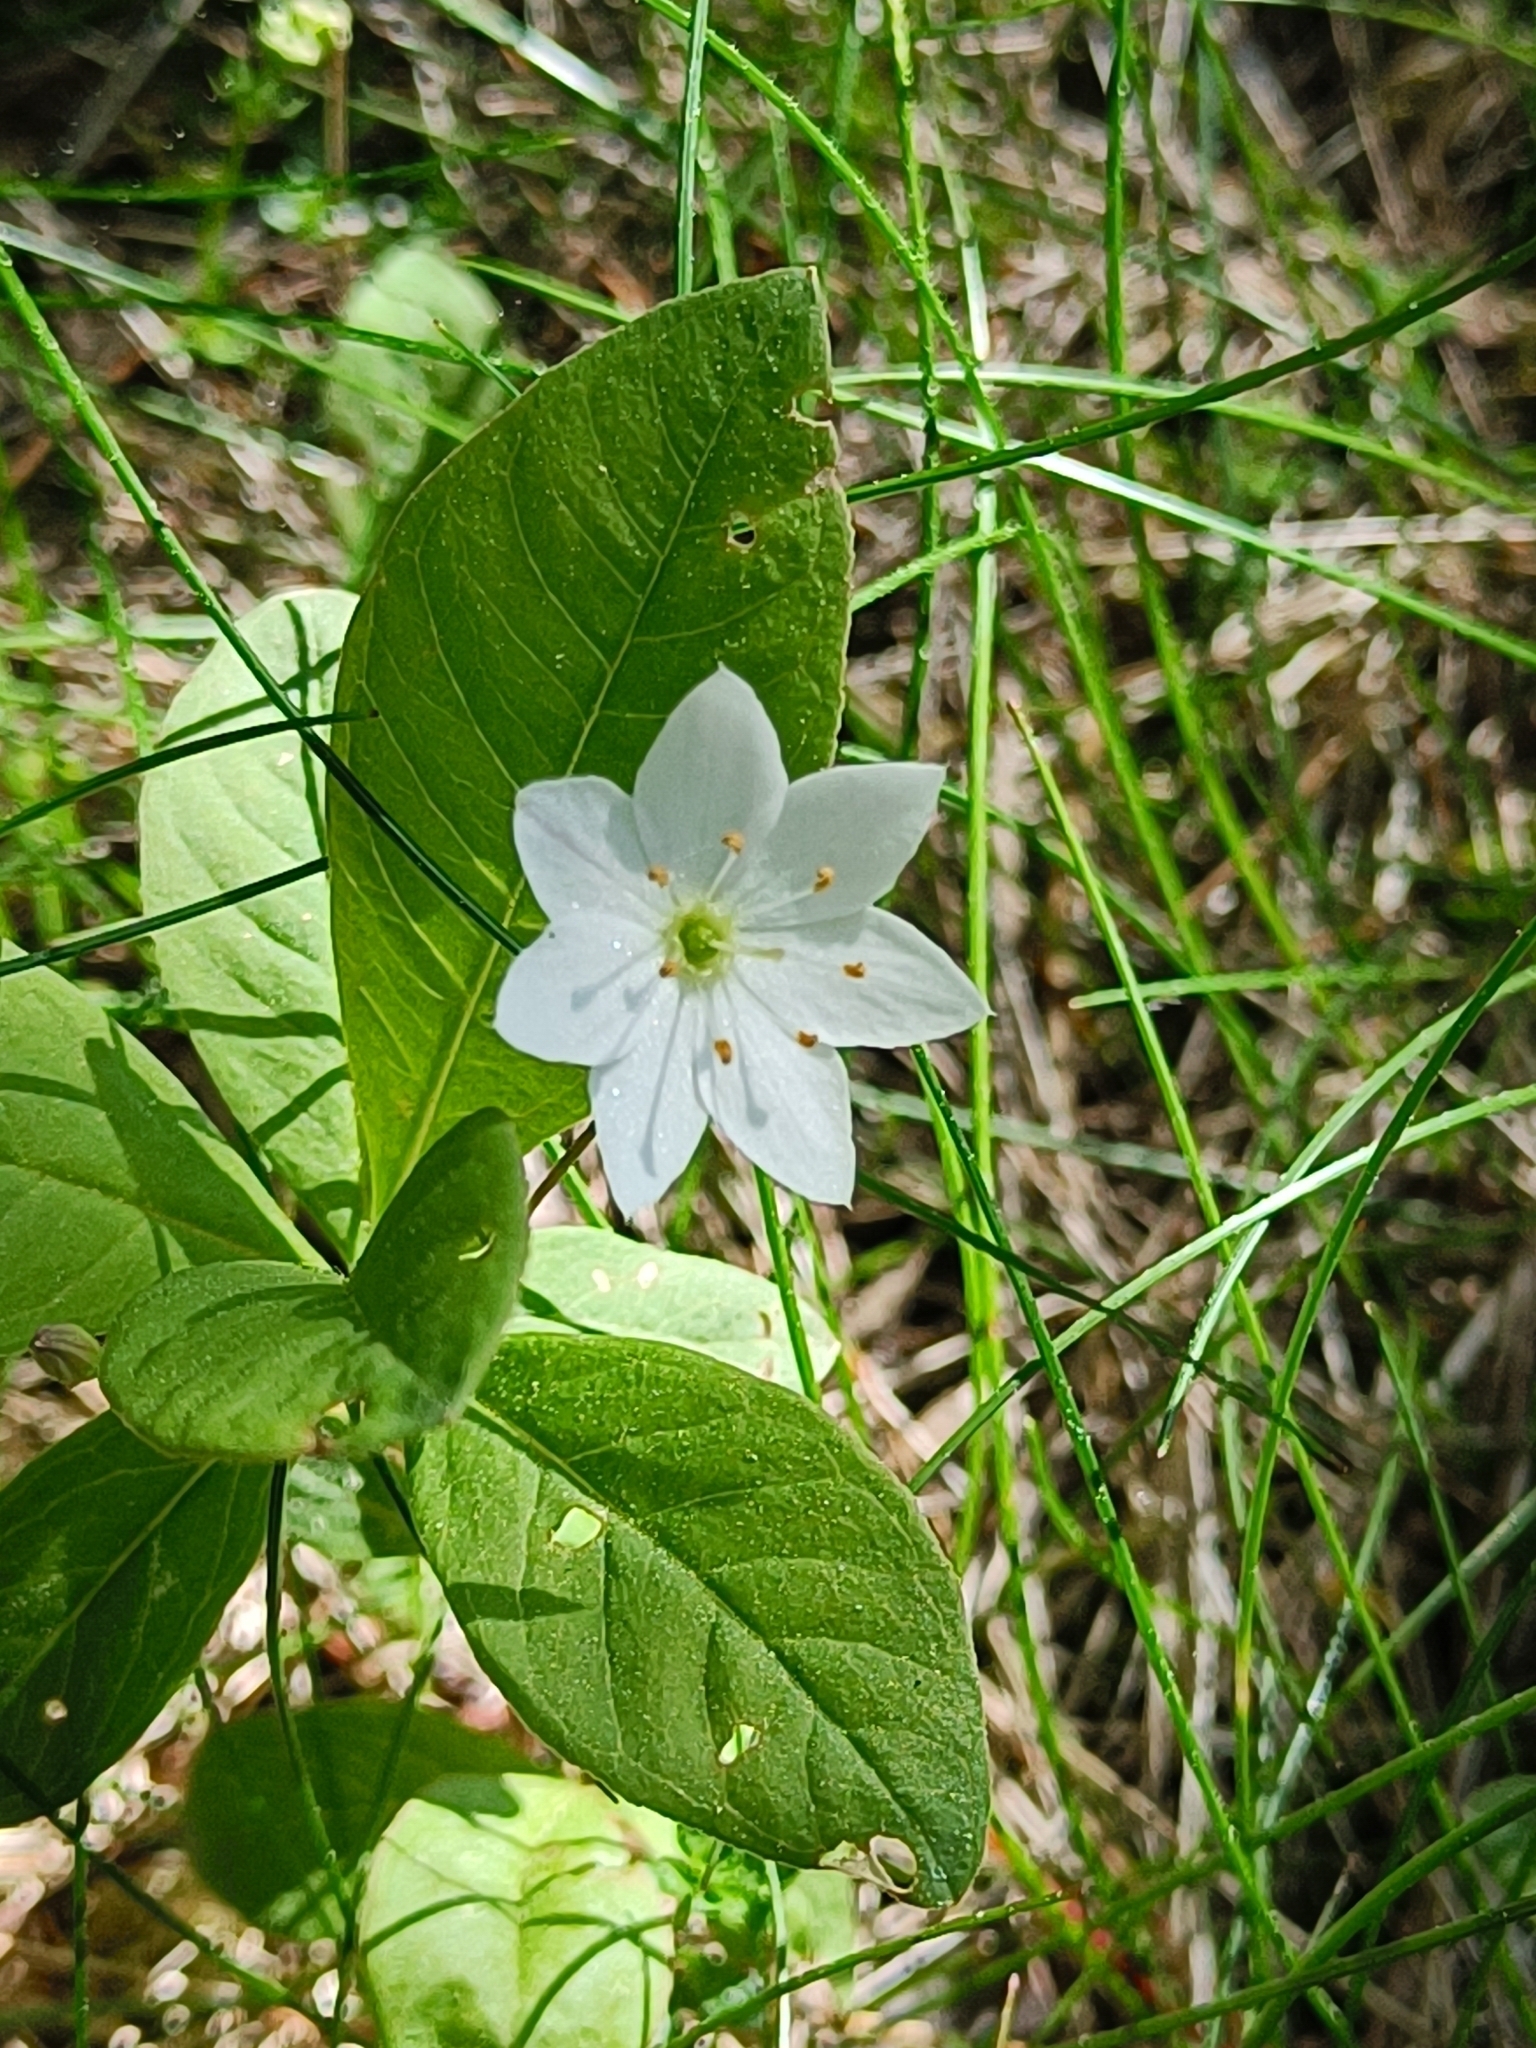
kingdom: Plantae
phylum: Tracheophyta
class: Magnoliopsida
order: Ericales
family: Primulaceae
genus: Lysimachia
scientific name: Lysimachia europaea
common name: Arctic starflower
